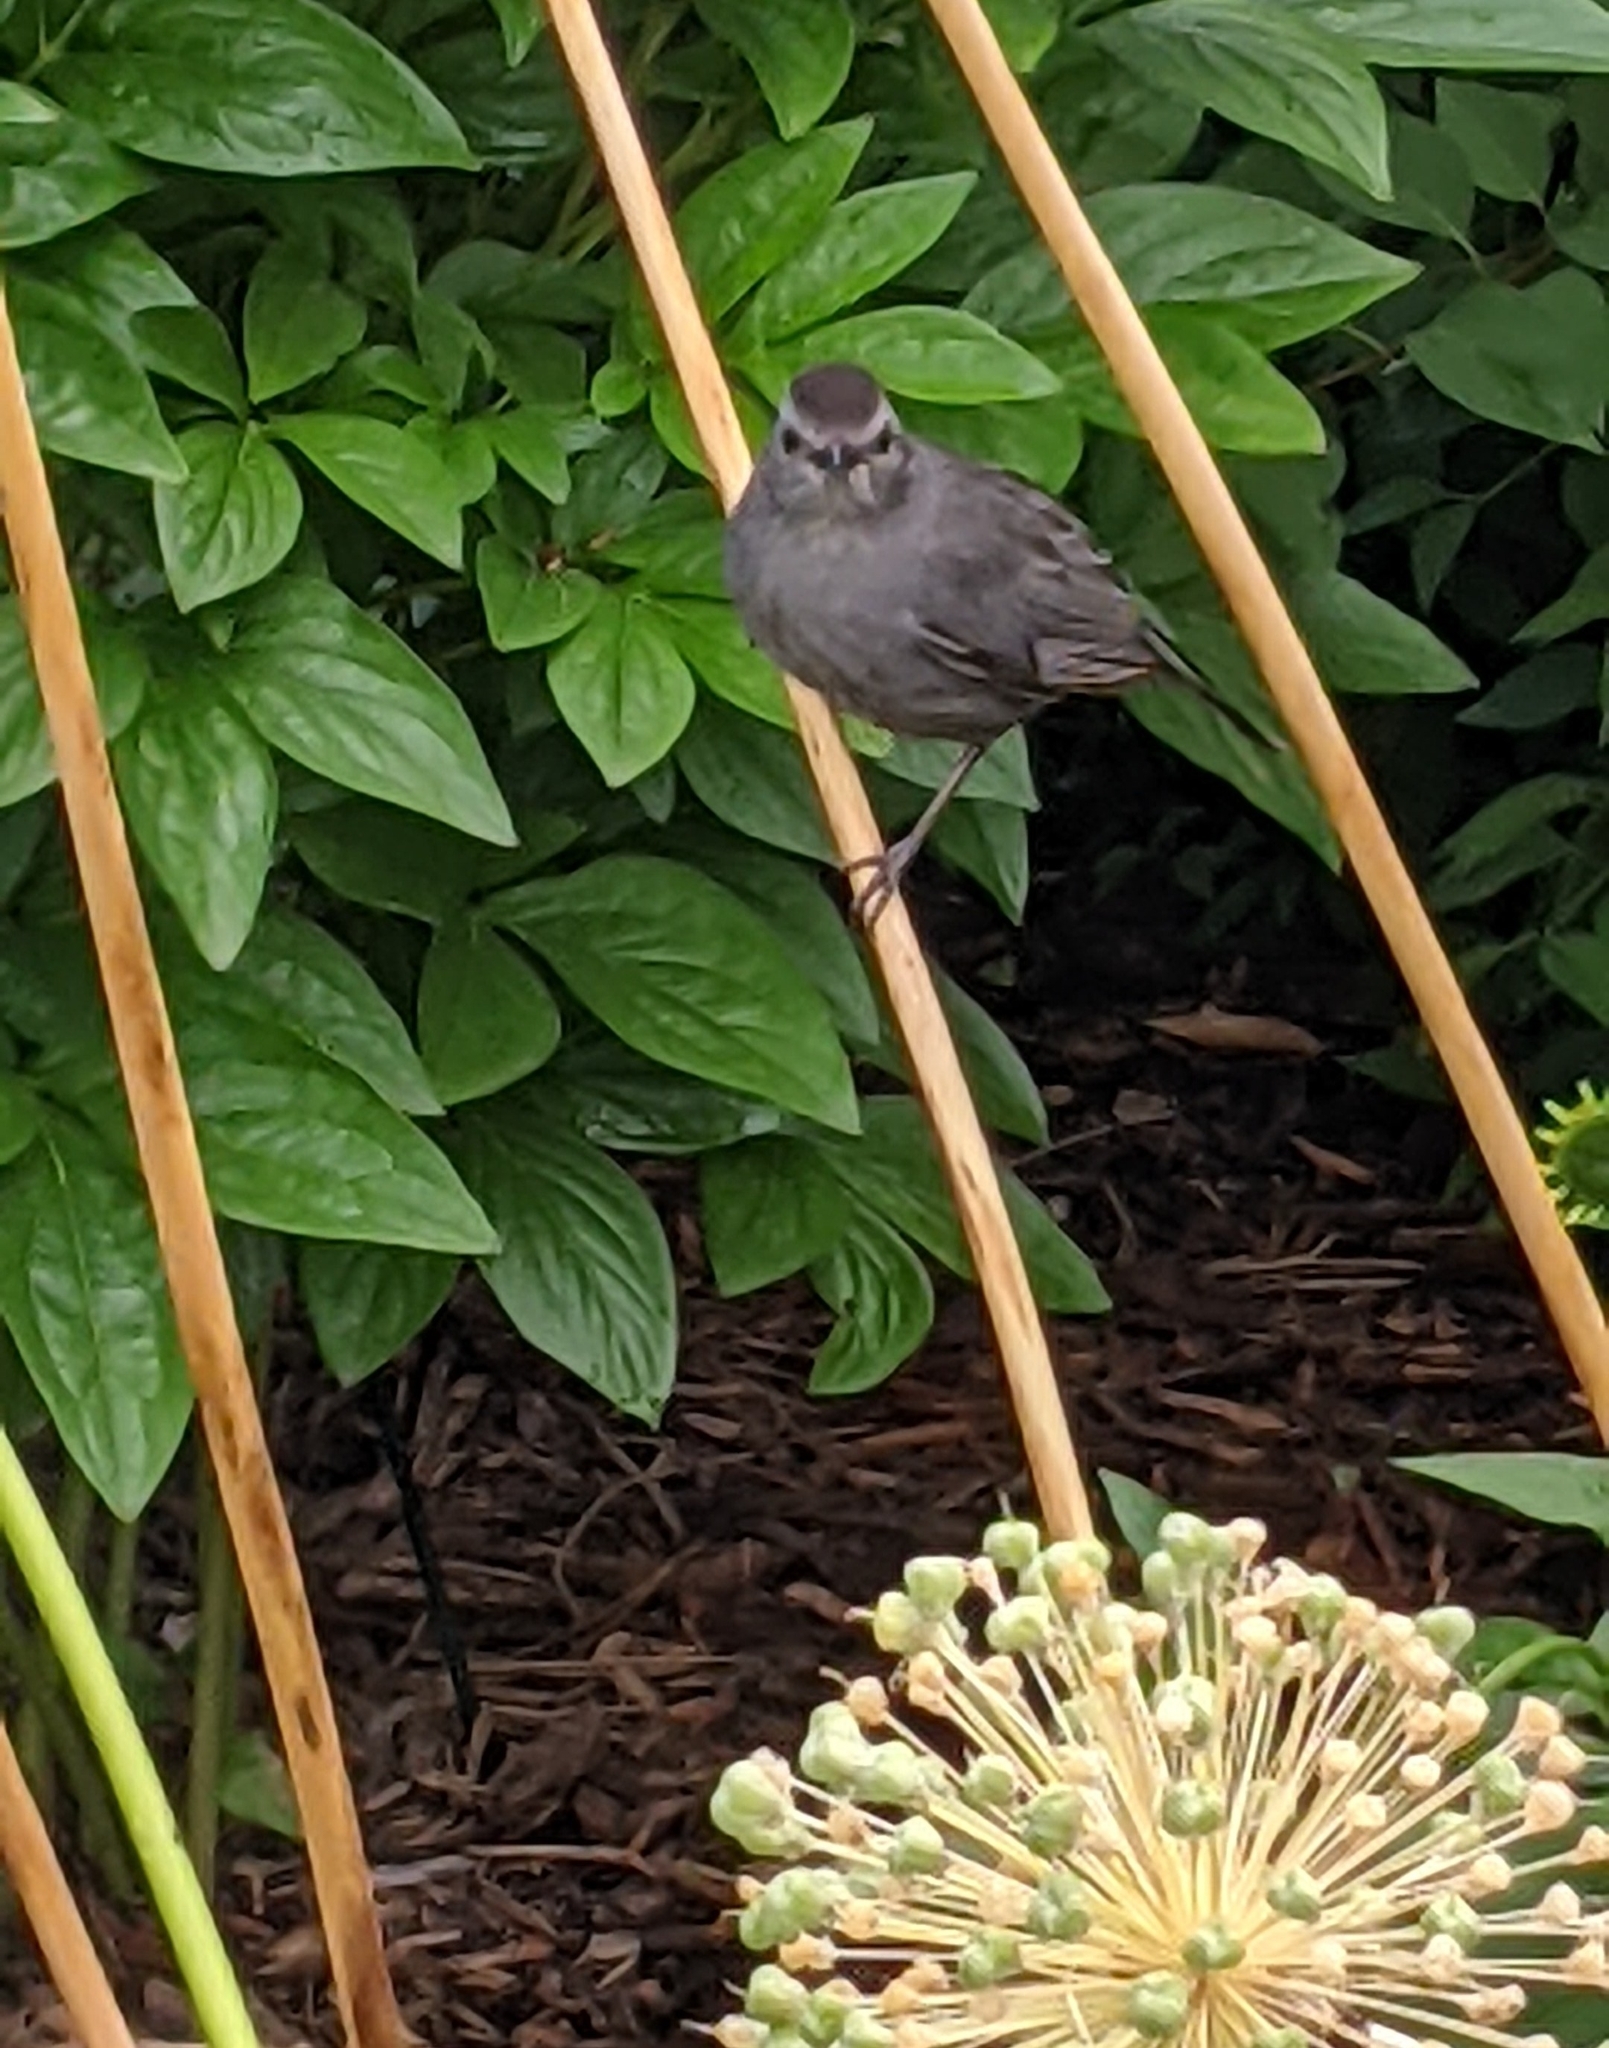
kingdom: Animalia
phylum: Chordata
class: Aves
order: Passeriformes
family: Mimidae
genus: Dumetella
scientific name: Dumetella carolinensis
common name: Gray catbird
